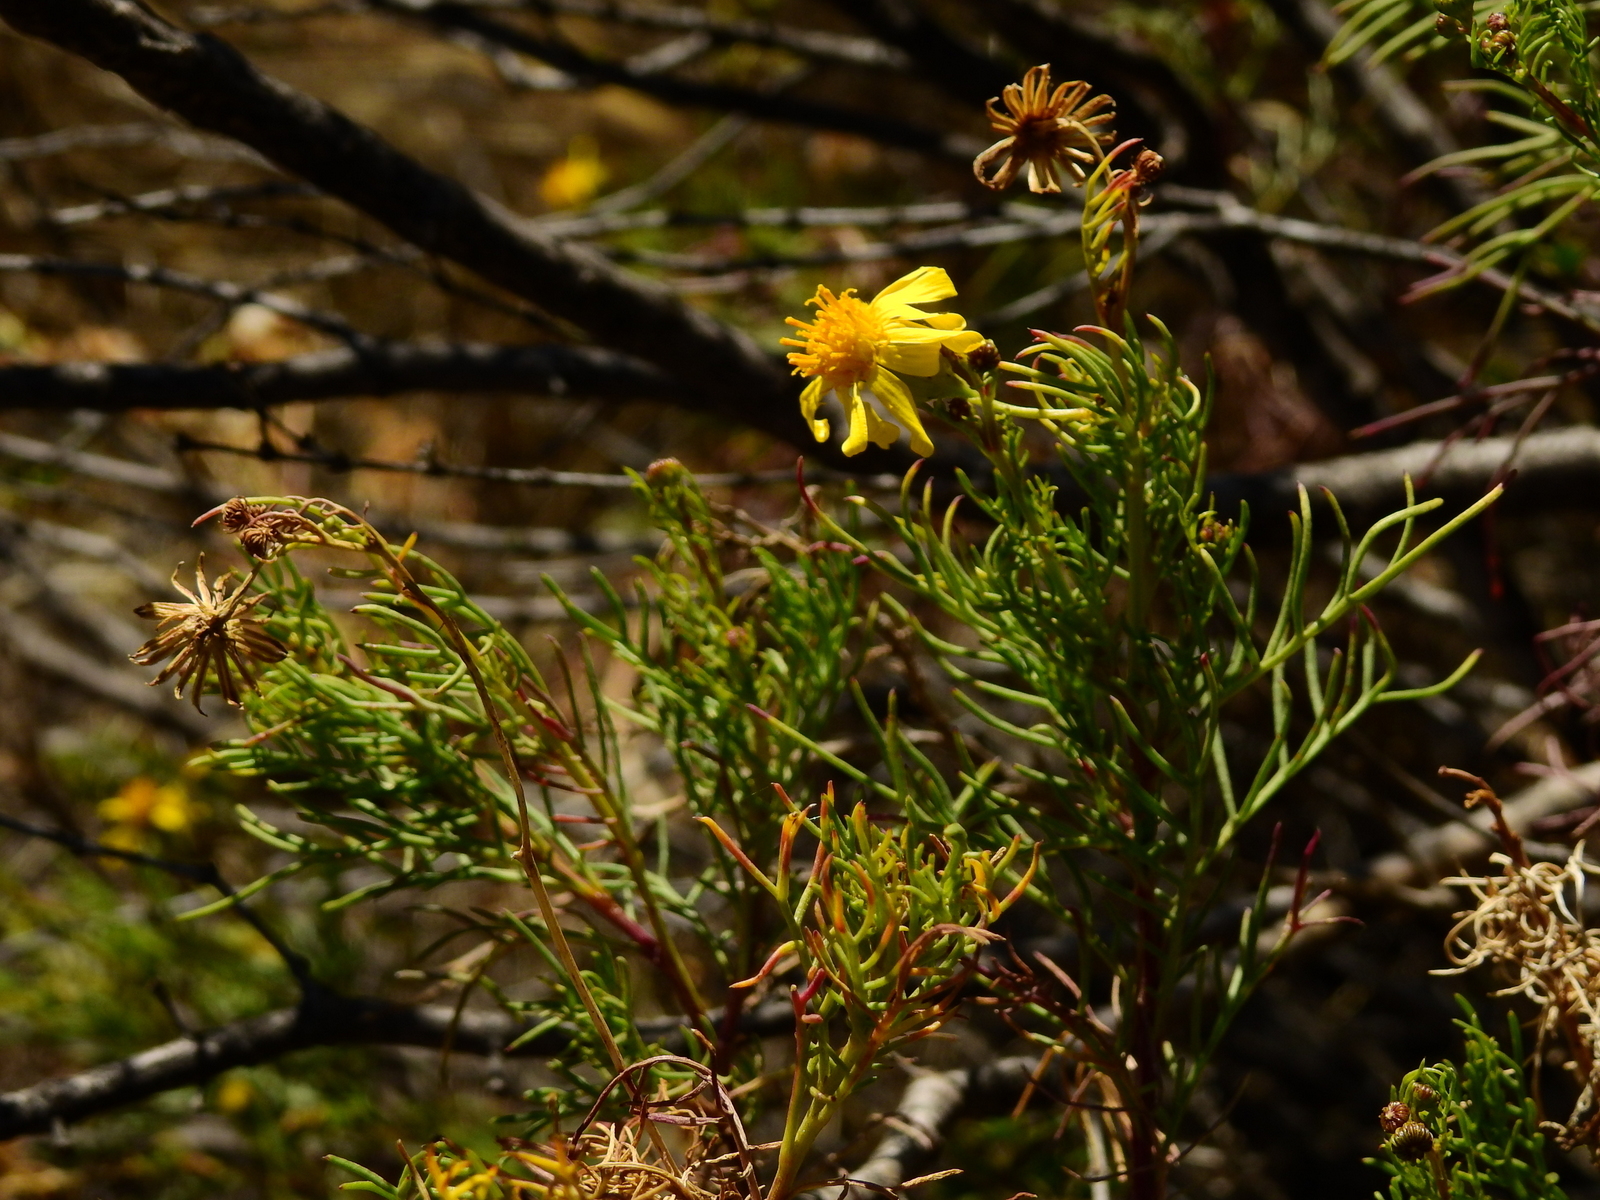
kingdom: Plantae
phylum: Tracheophyta
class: Magnoliopsida
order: Asterales
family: Asteraceae
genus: Senecio
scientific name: Senecio subulatus
